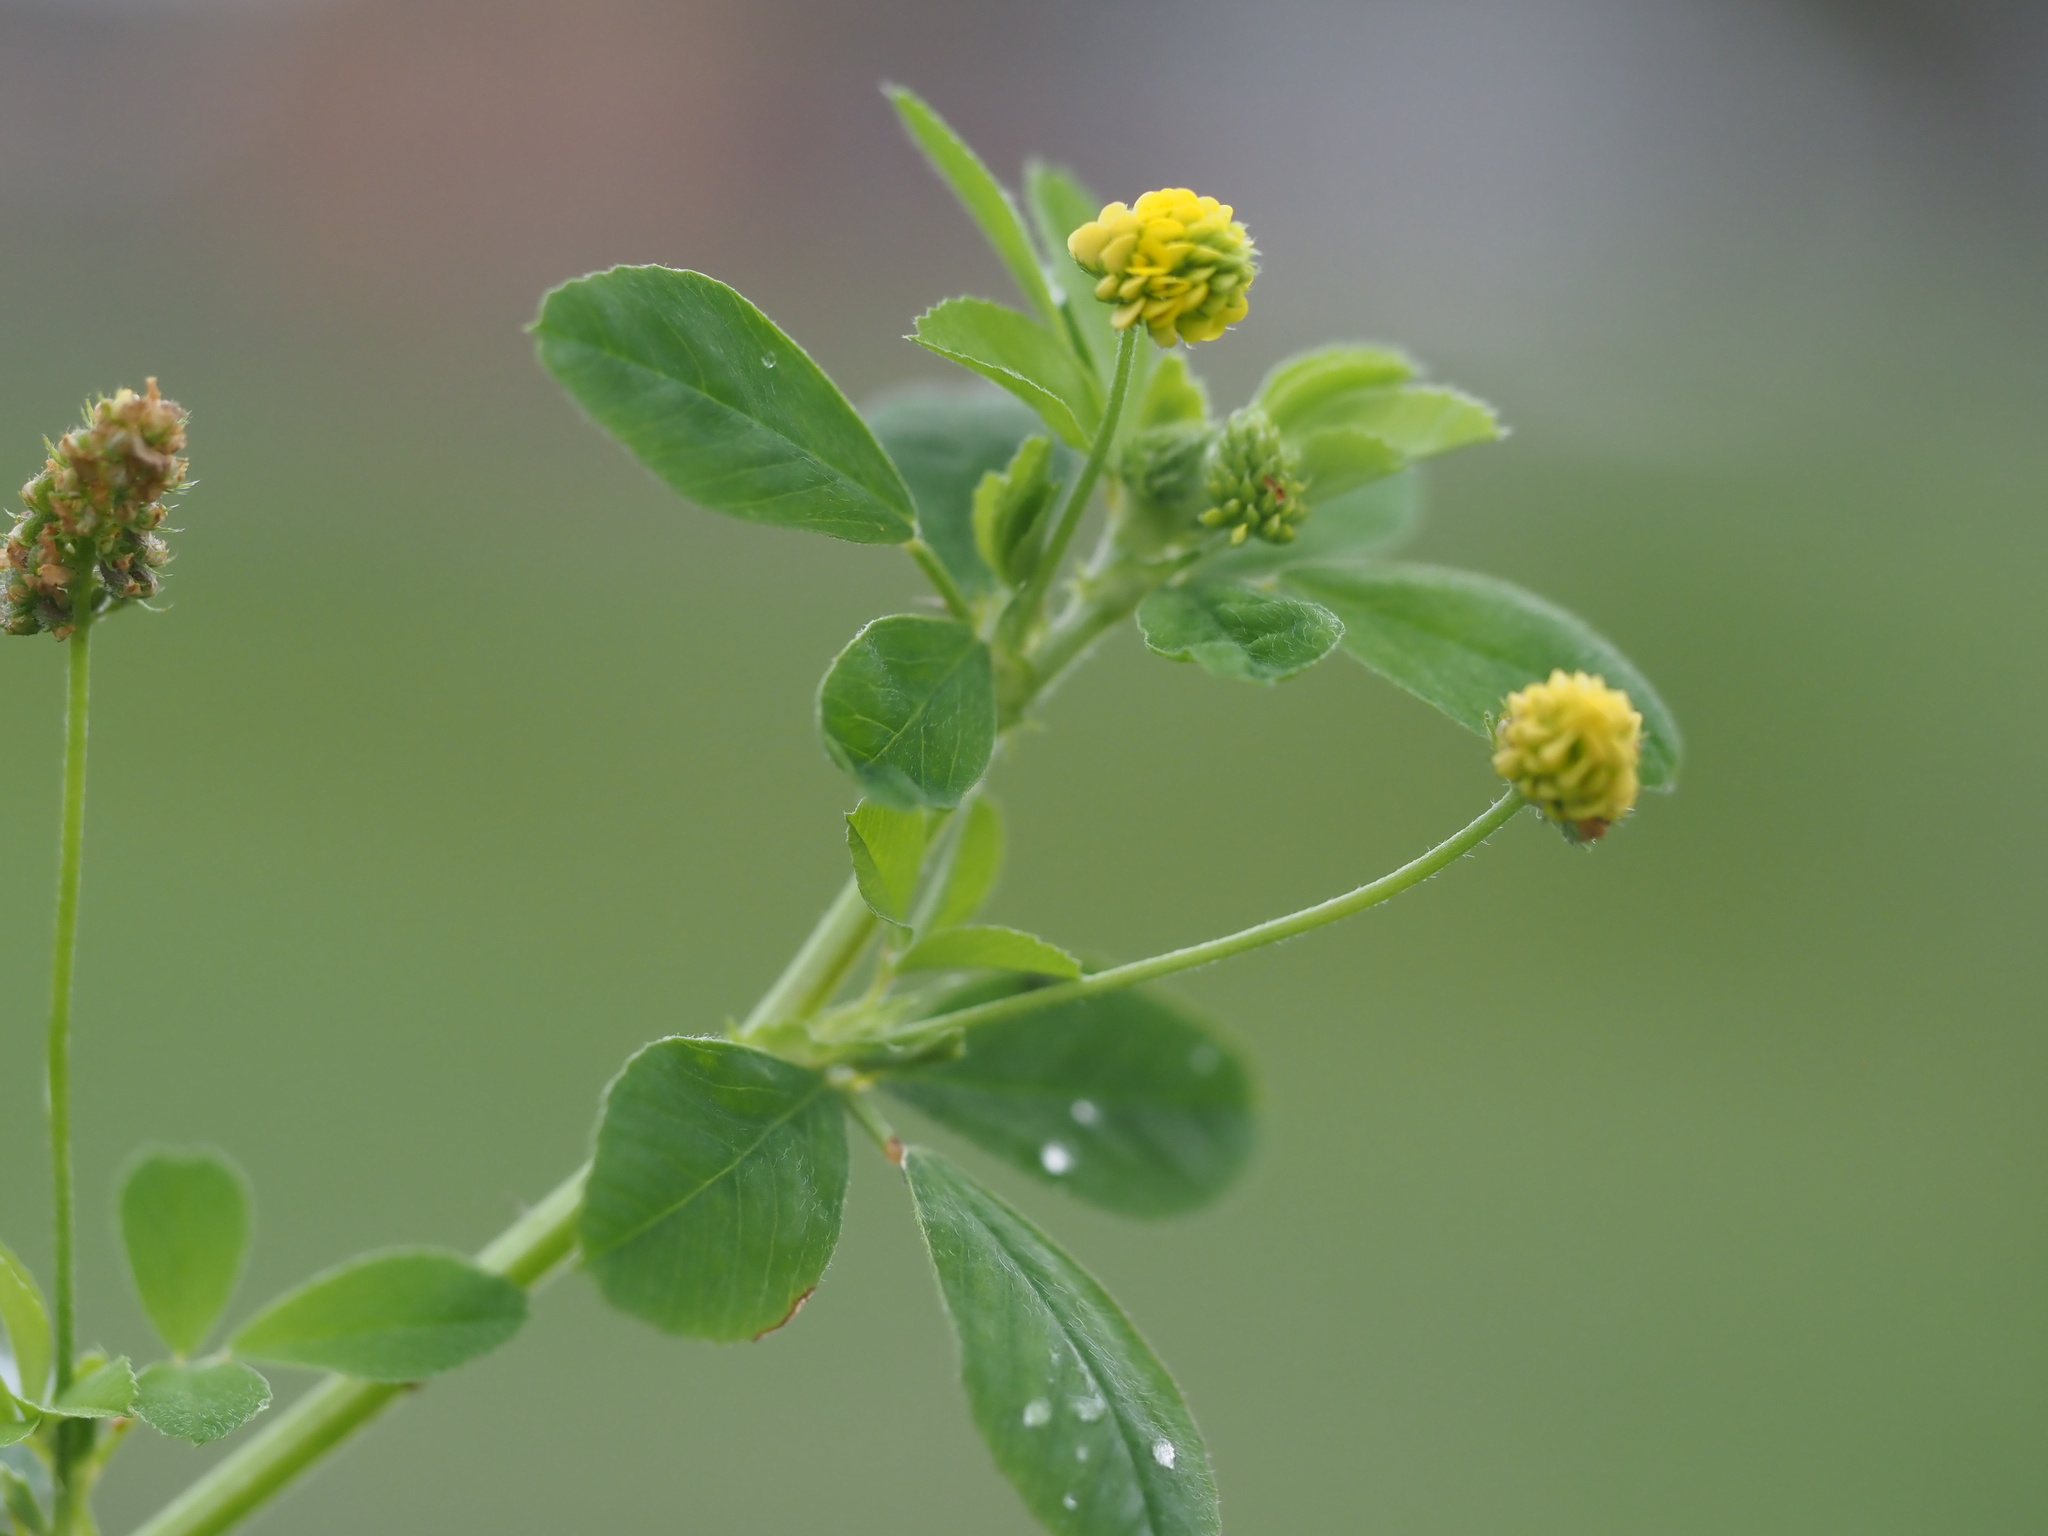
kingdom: Plantae
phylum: Tracheophyta
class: Magnoliopsida
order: Fabales
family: Fabaceae
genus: Medicago
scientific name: Medicago lupulina
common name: Black medick
